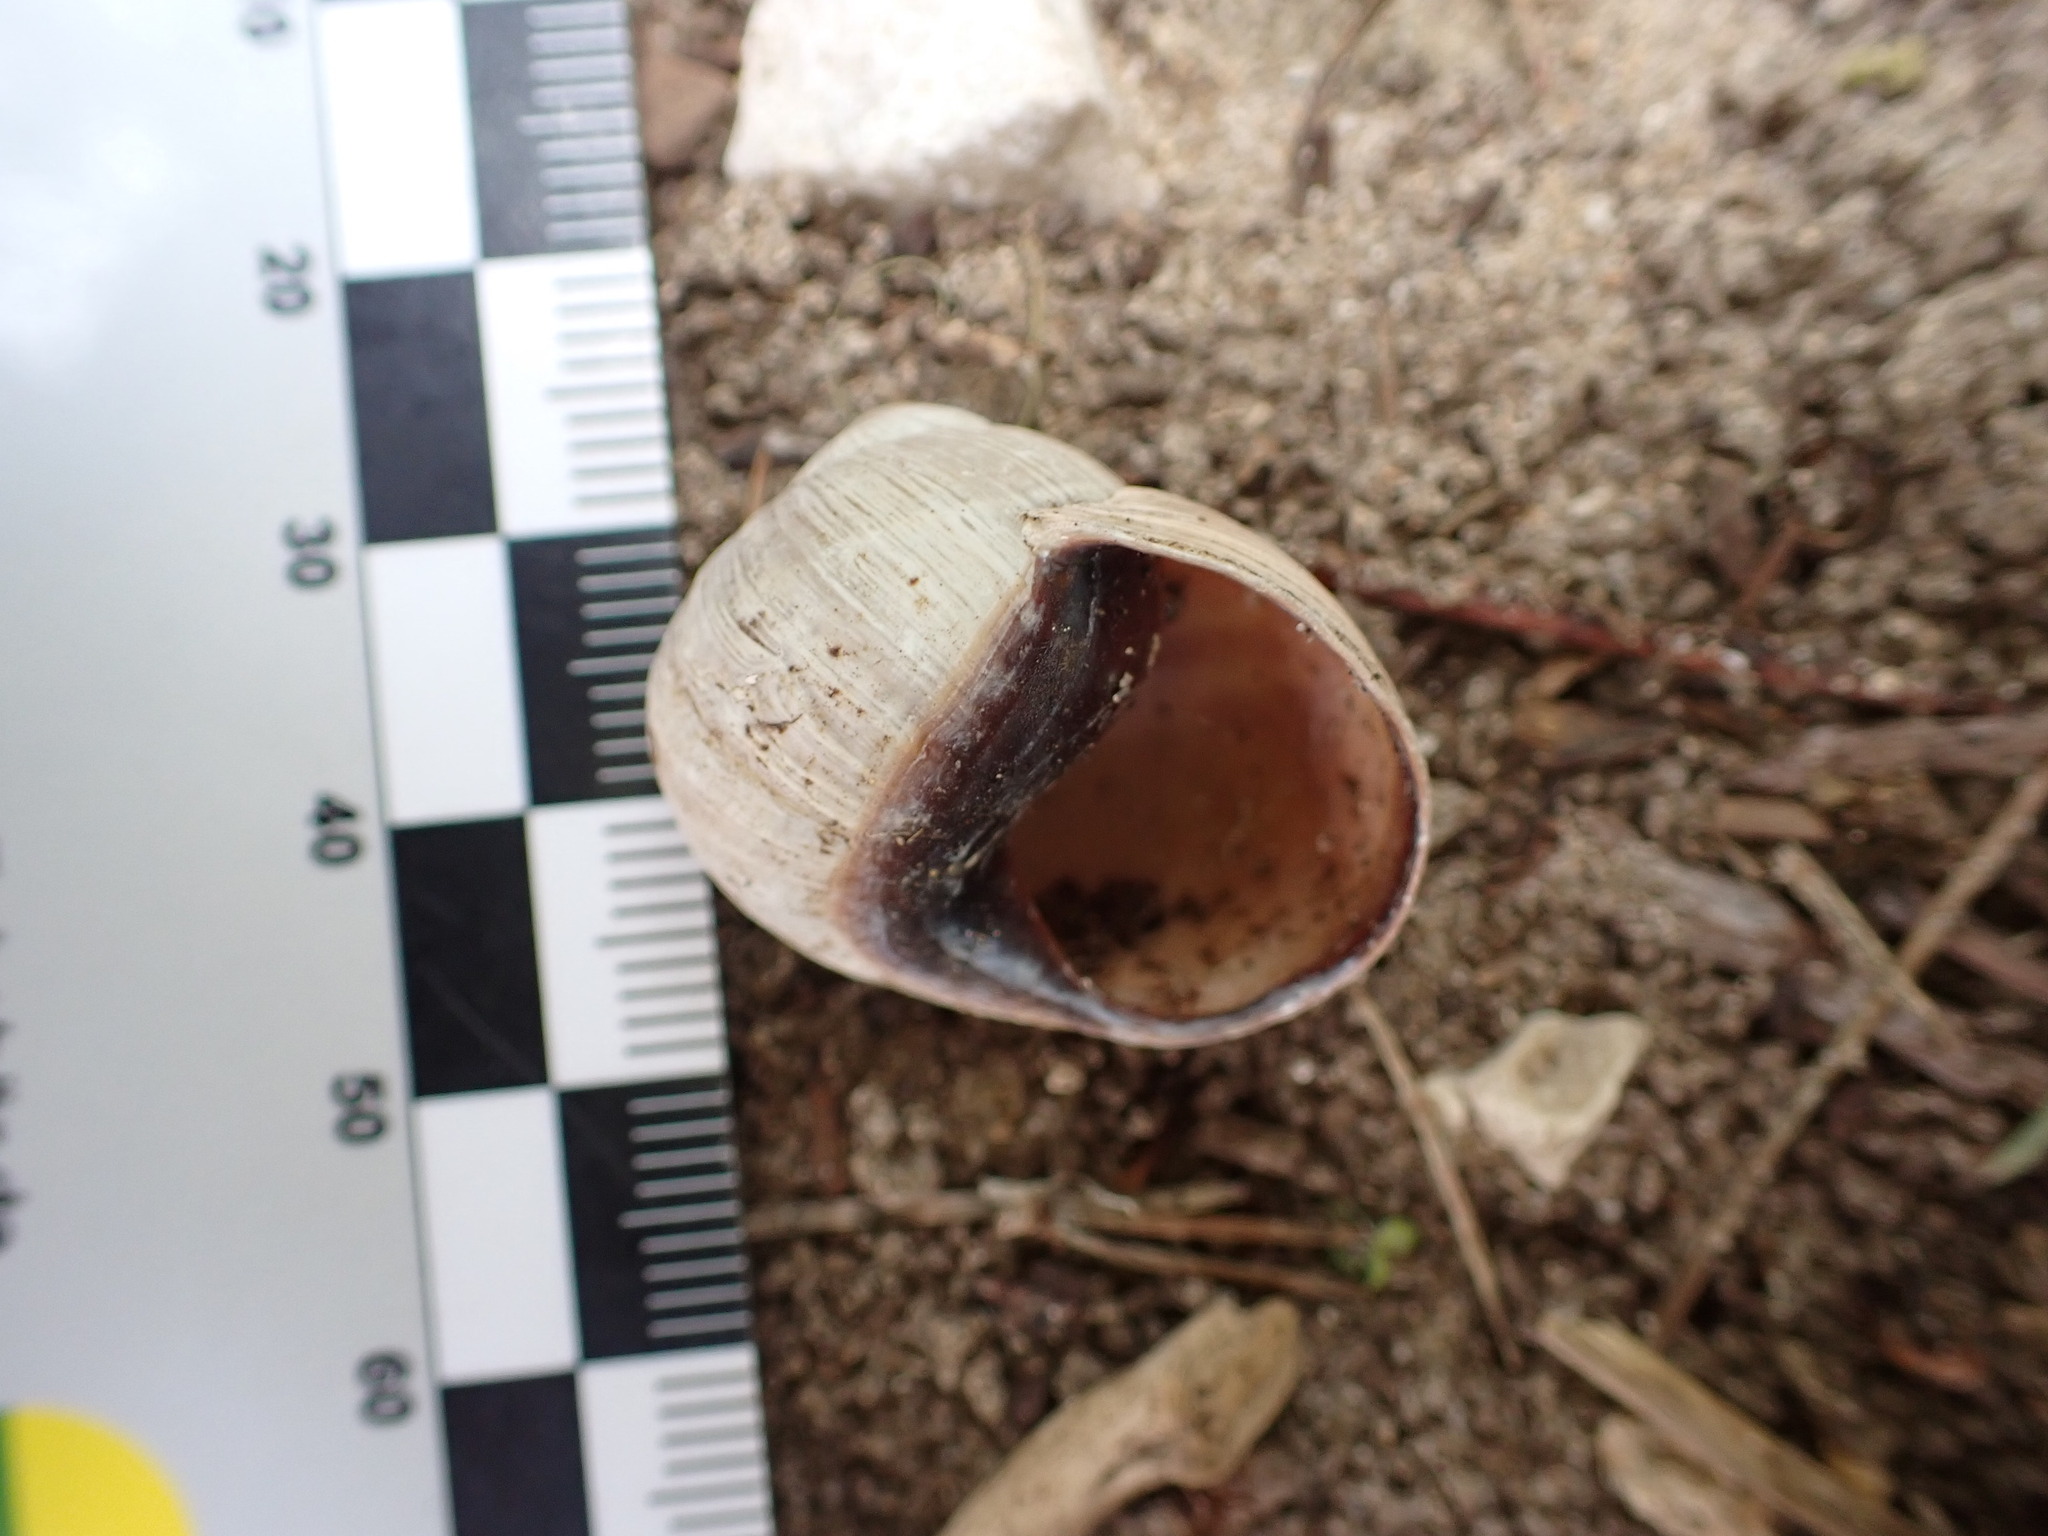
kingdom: Animalia
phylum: Mollusca
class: Gastropoda
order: Stylommatophora
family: Helicidae
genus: Helix
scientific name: Helix melanostoma
